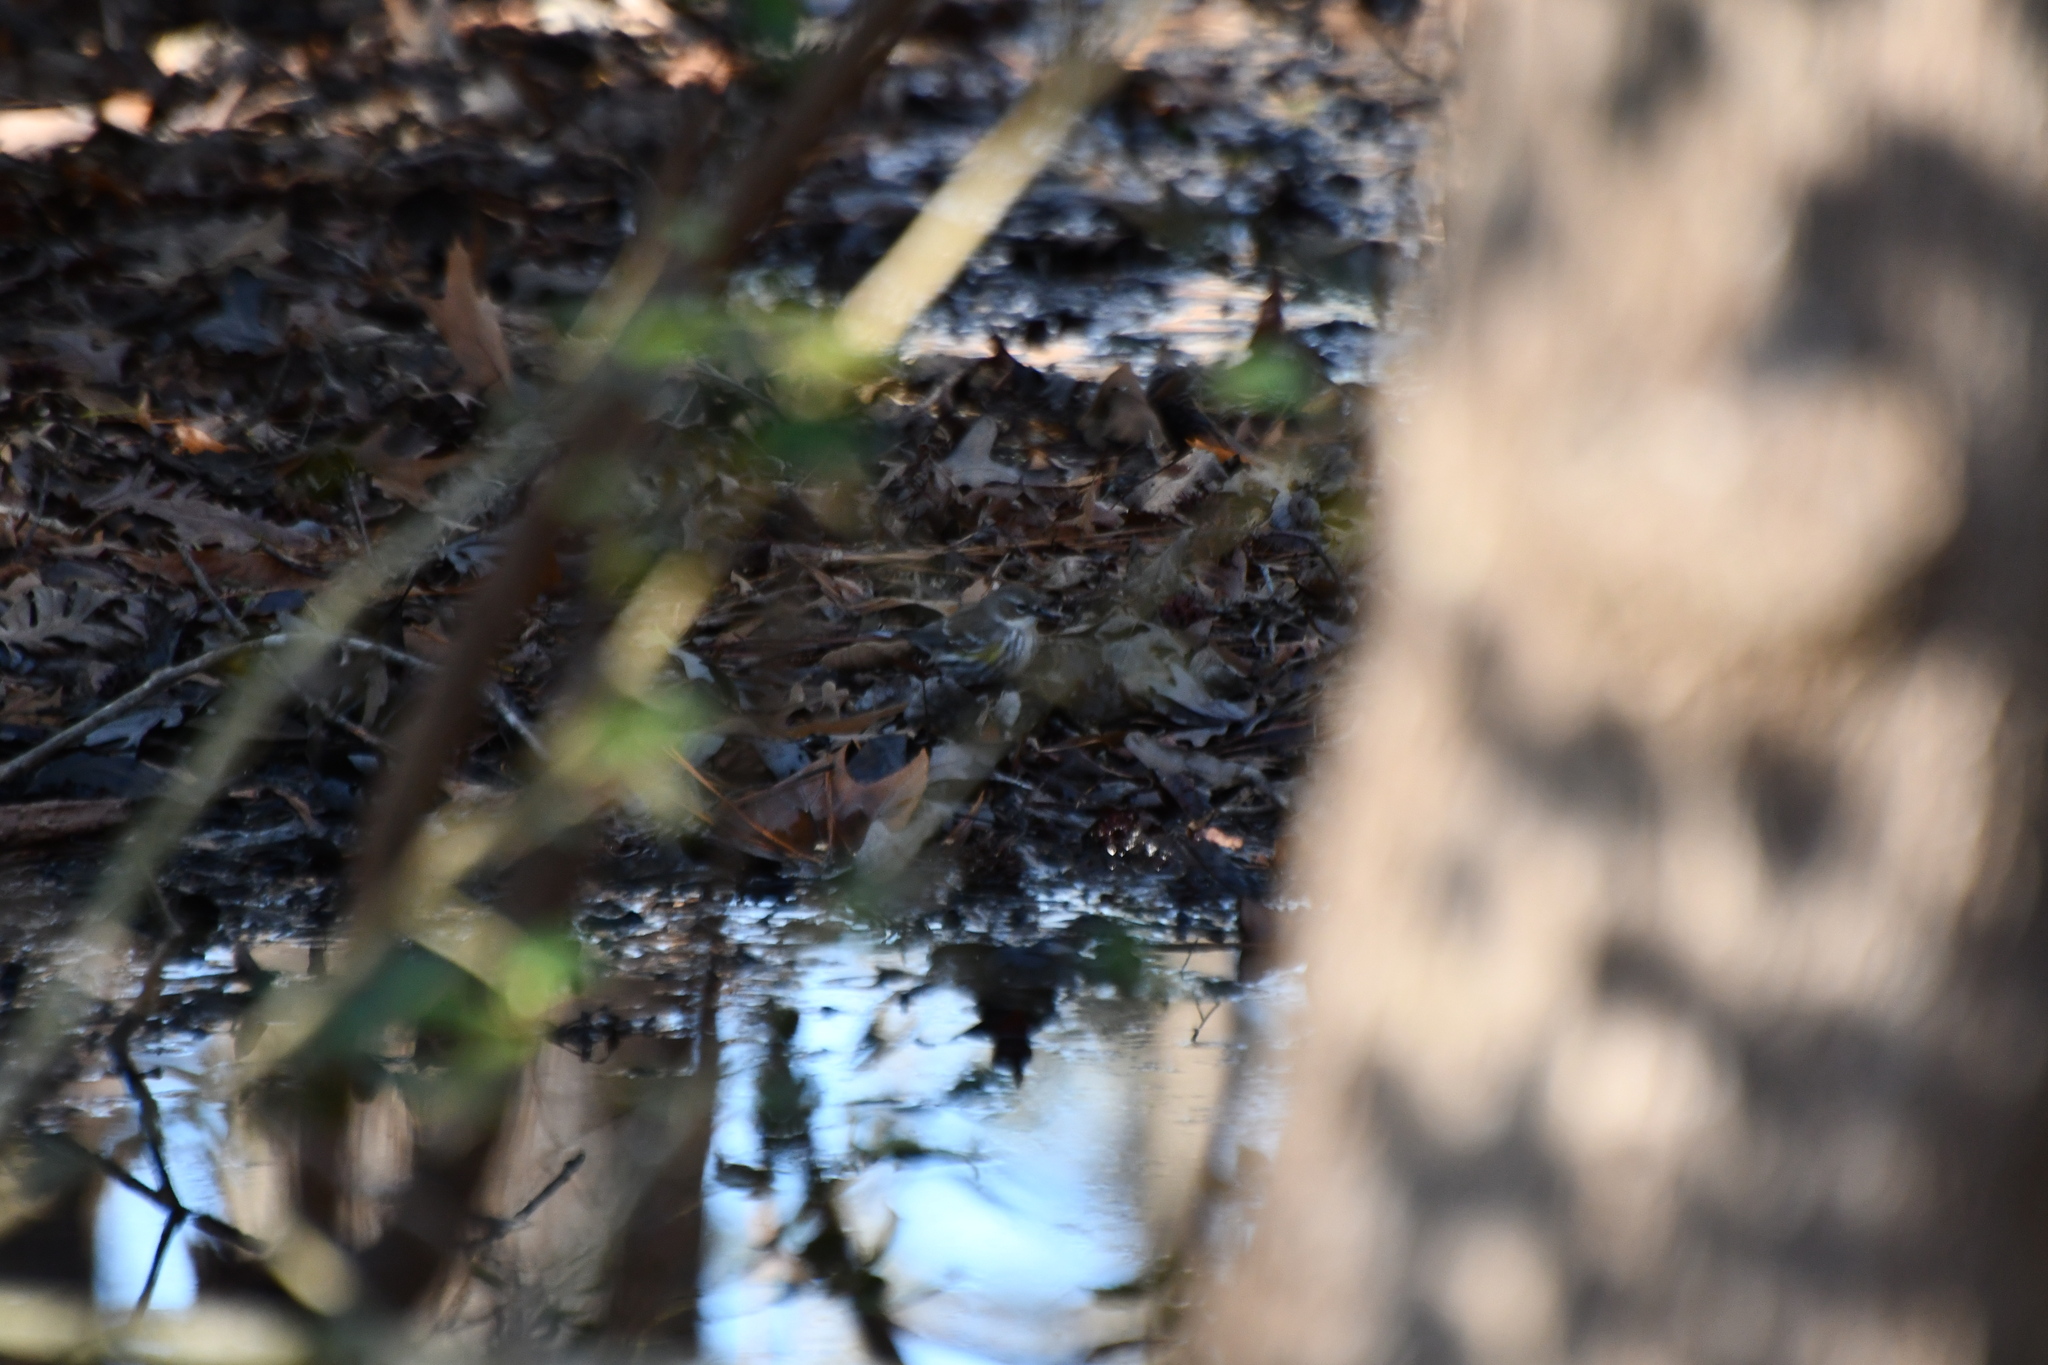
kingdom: Animalia
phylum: Chordata
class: Aves
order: Passeriformes
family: Parulidae
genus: Setophaga
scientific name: Setophaga coronata
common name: Myrtle warbler
